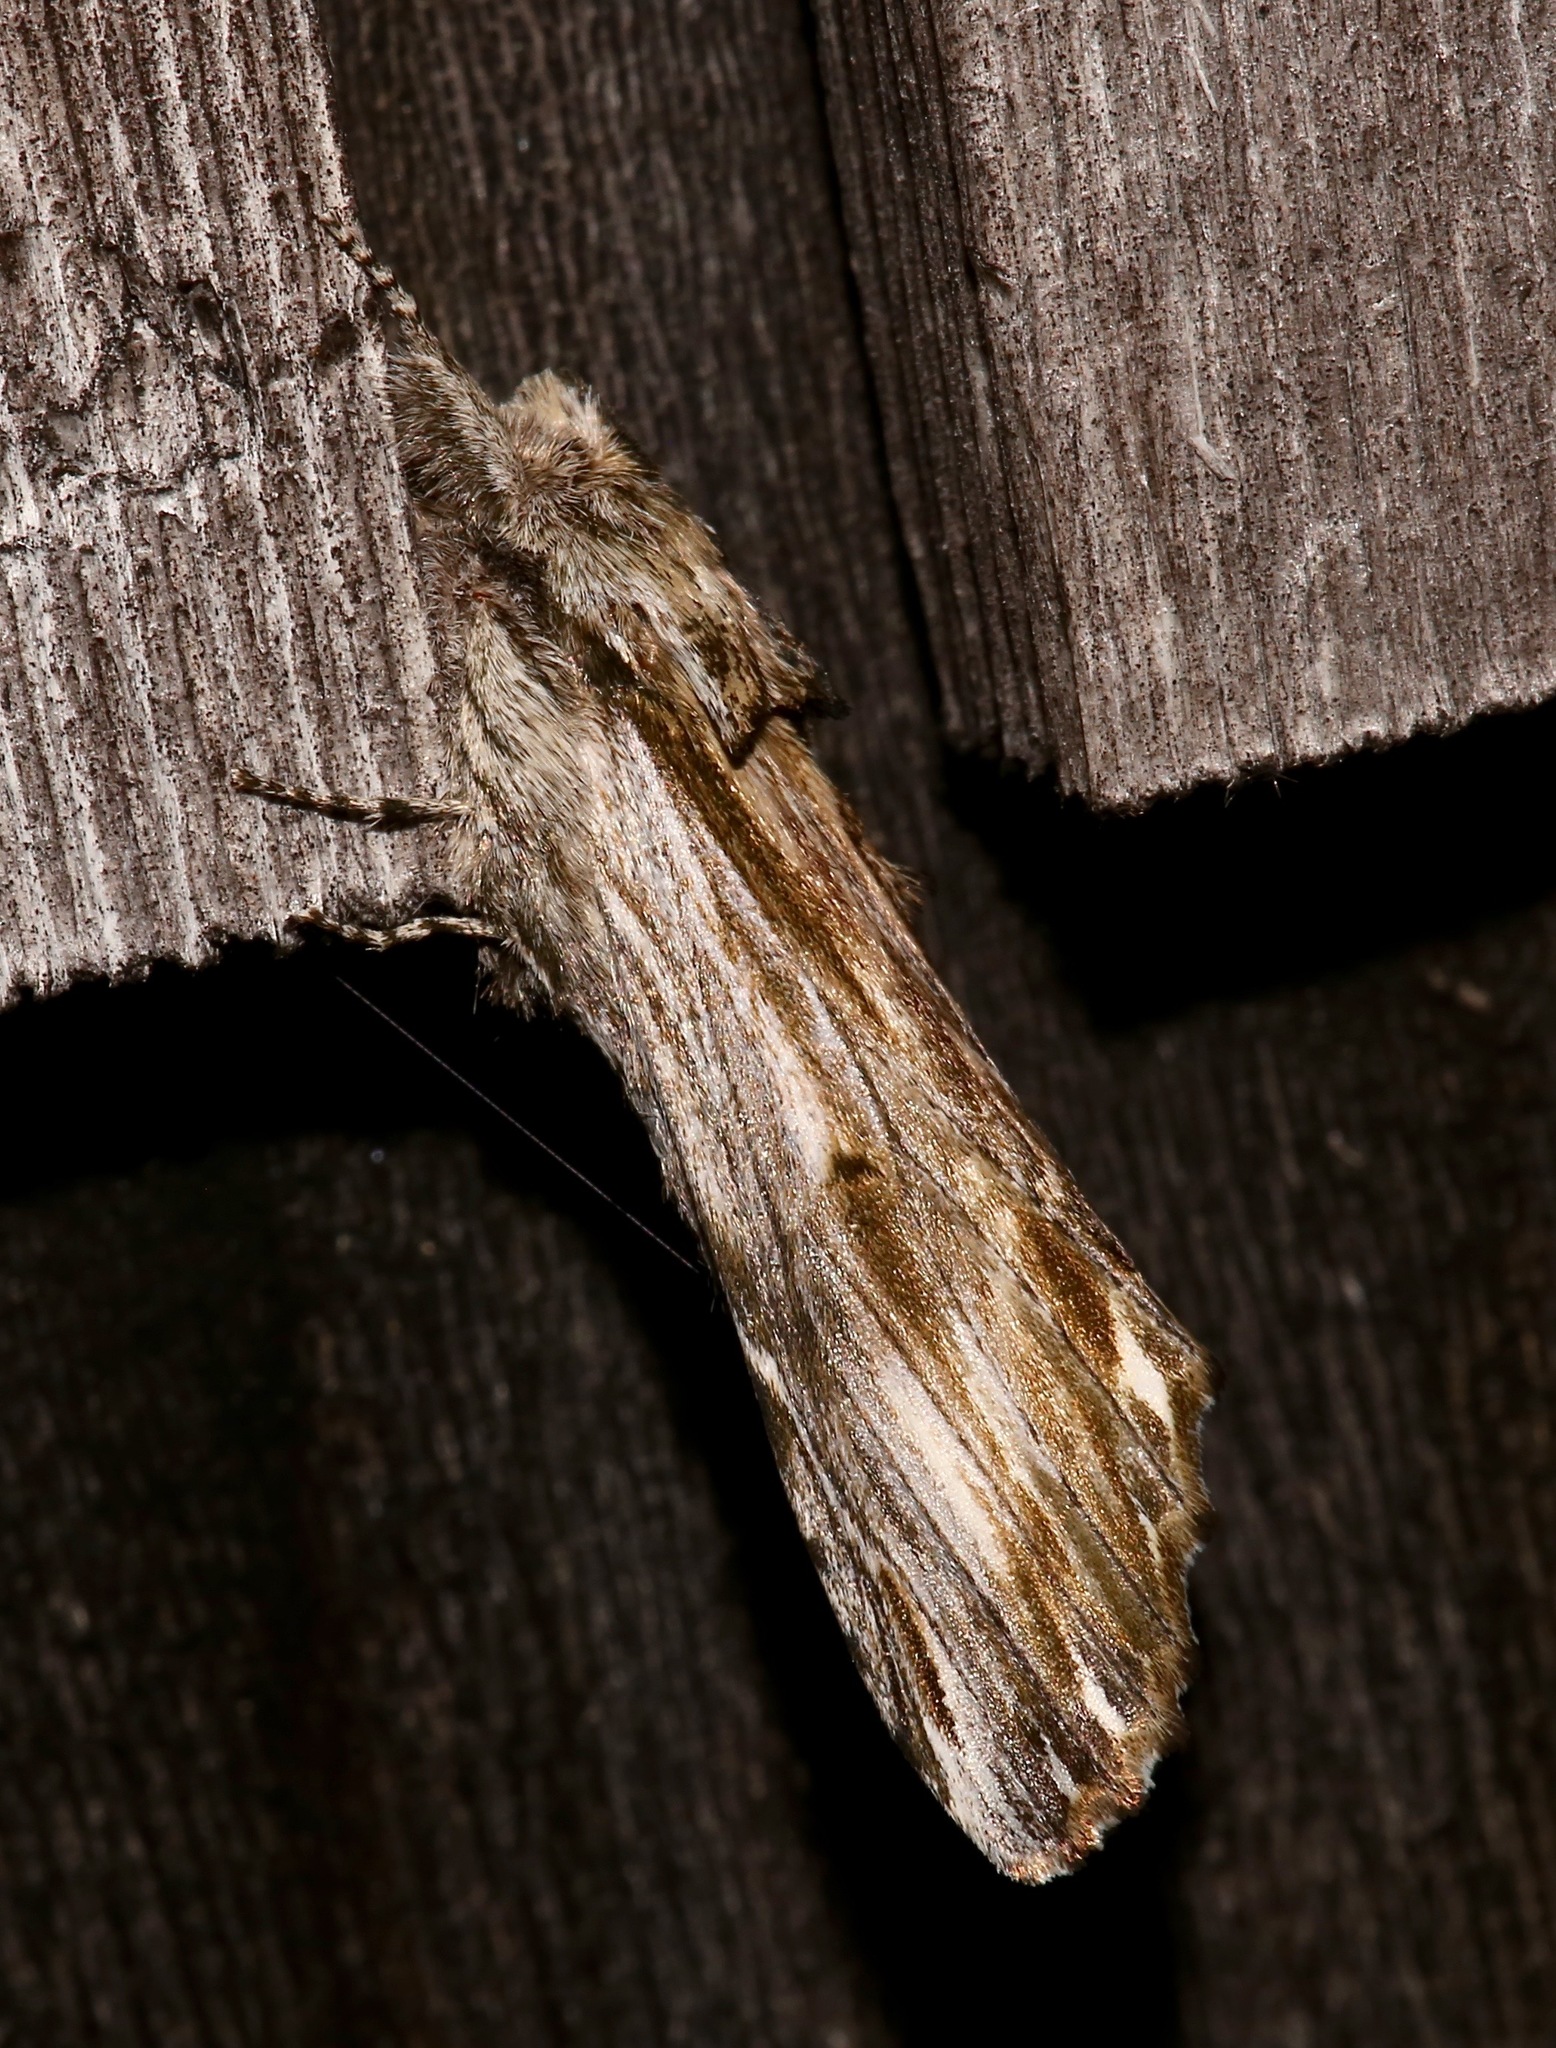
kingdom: Animalia
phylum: Arthropoda
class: Insecta
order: Lepidoptera
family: Notodontidae
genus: Oligocentria
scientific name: Oligocentria Ianassa lignicolor
